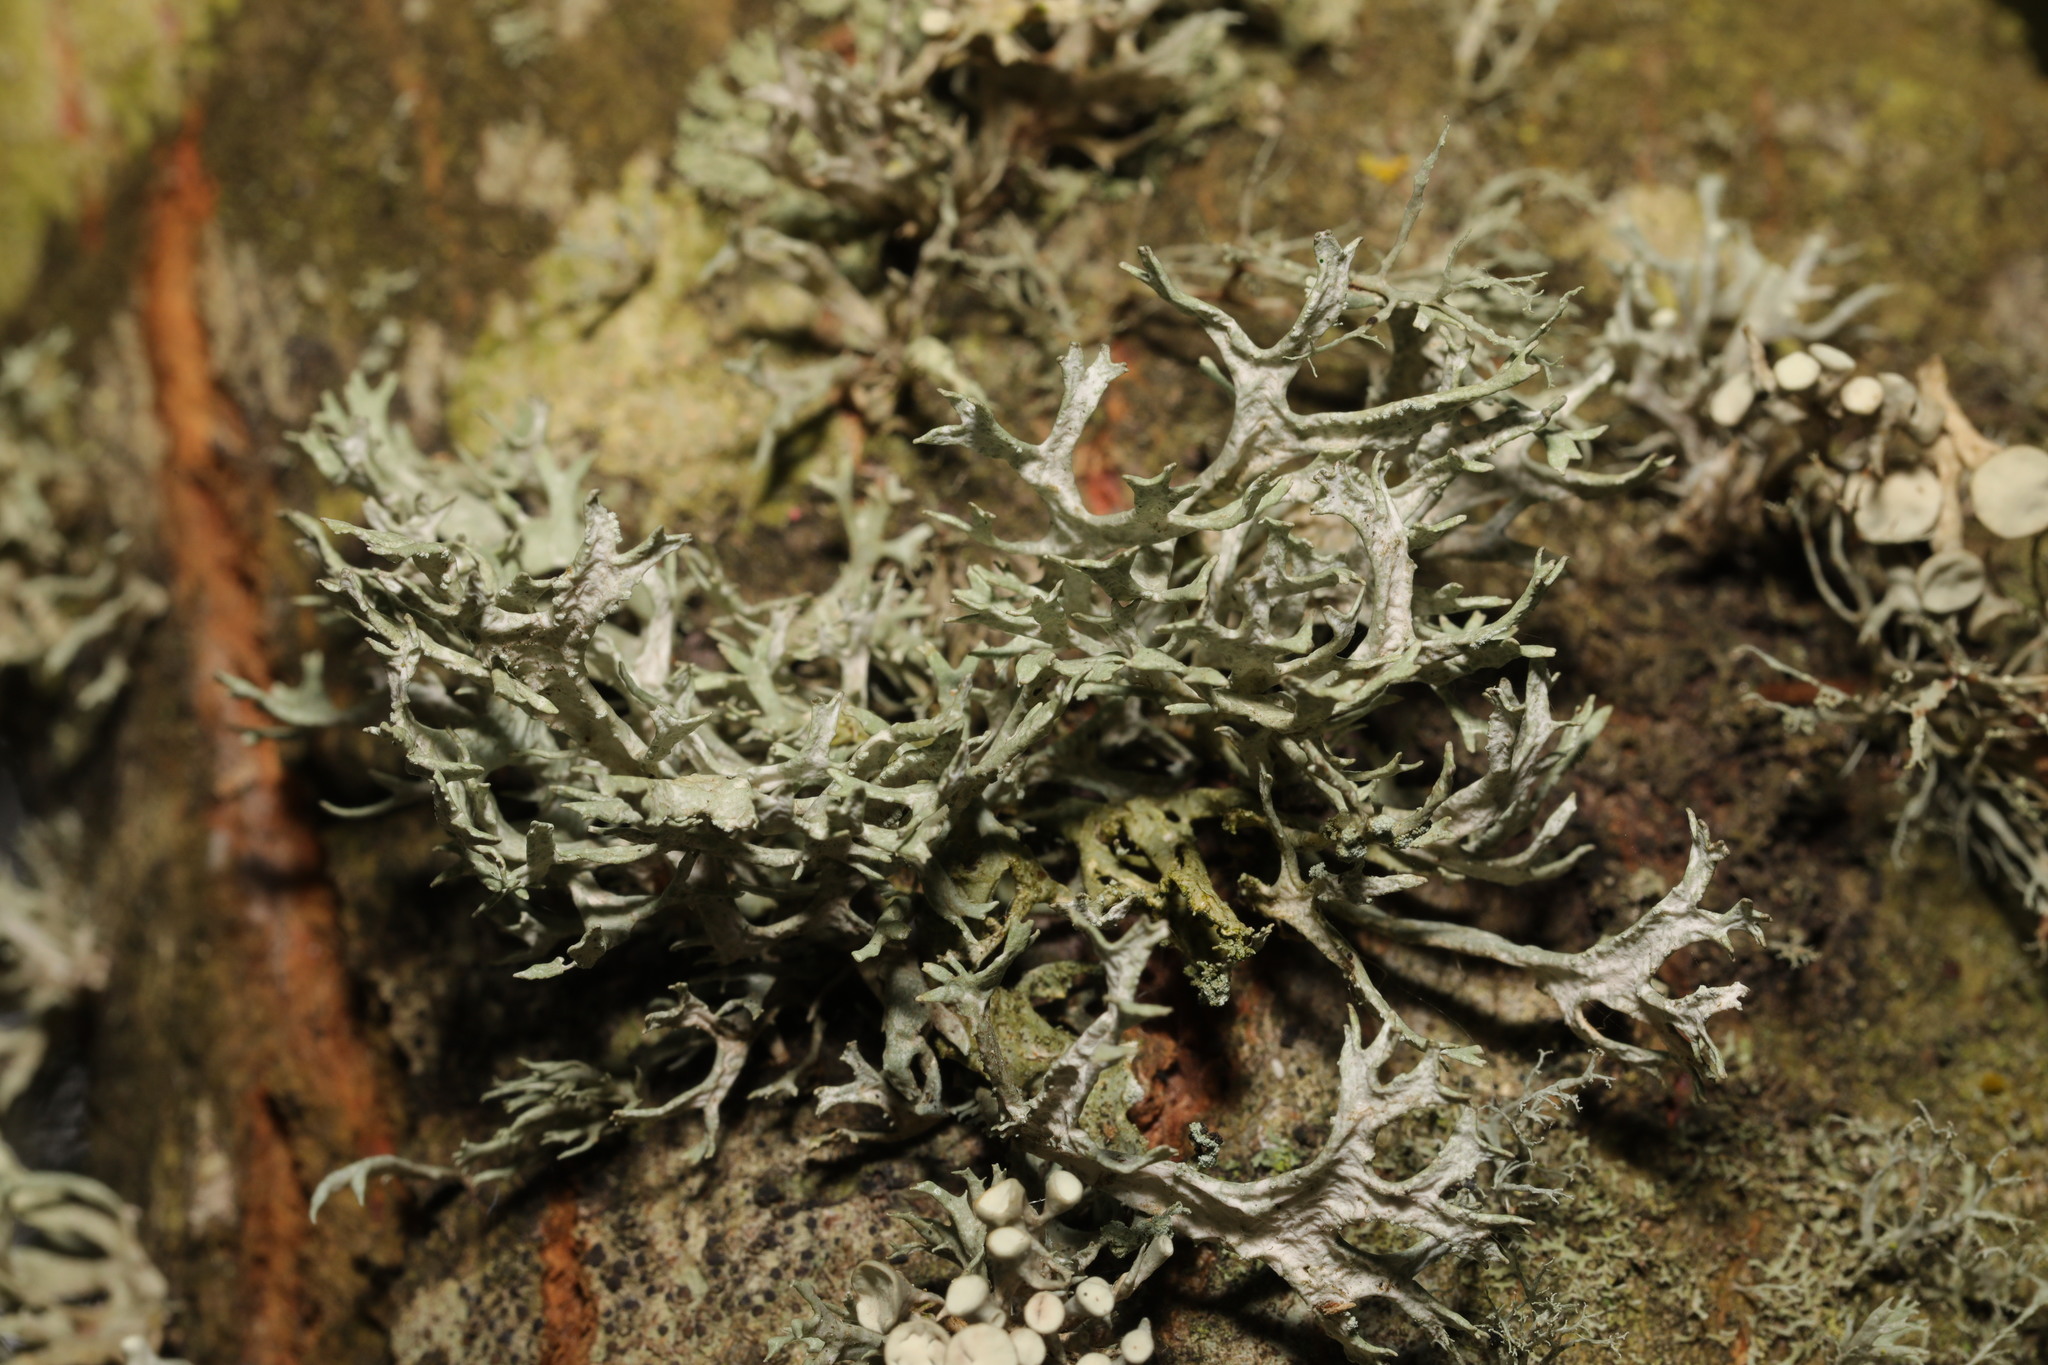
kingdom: Fungi
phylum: Ascomycota
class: Lecanoromycetes
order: Lecanorales
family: Parmeliaceae
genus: Evernia
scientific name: Evernia prunastri
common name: Oak moss
